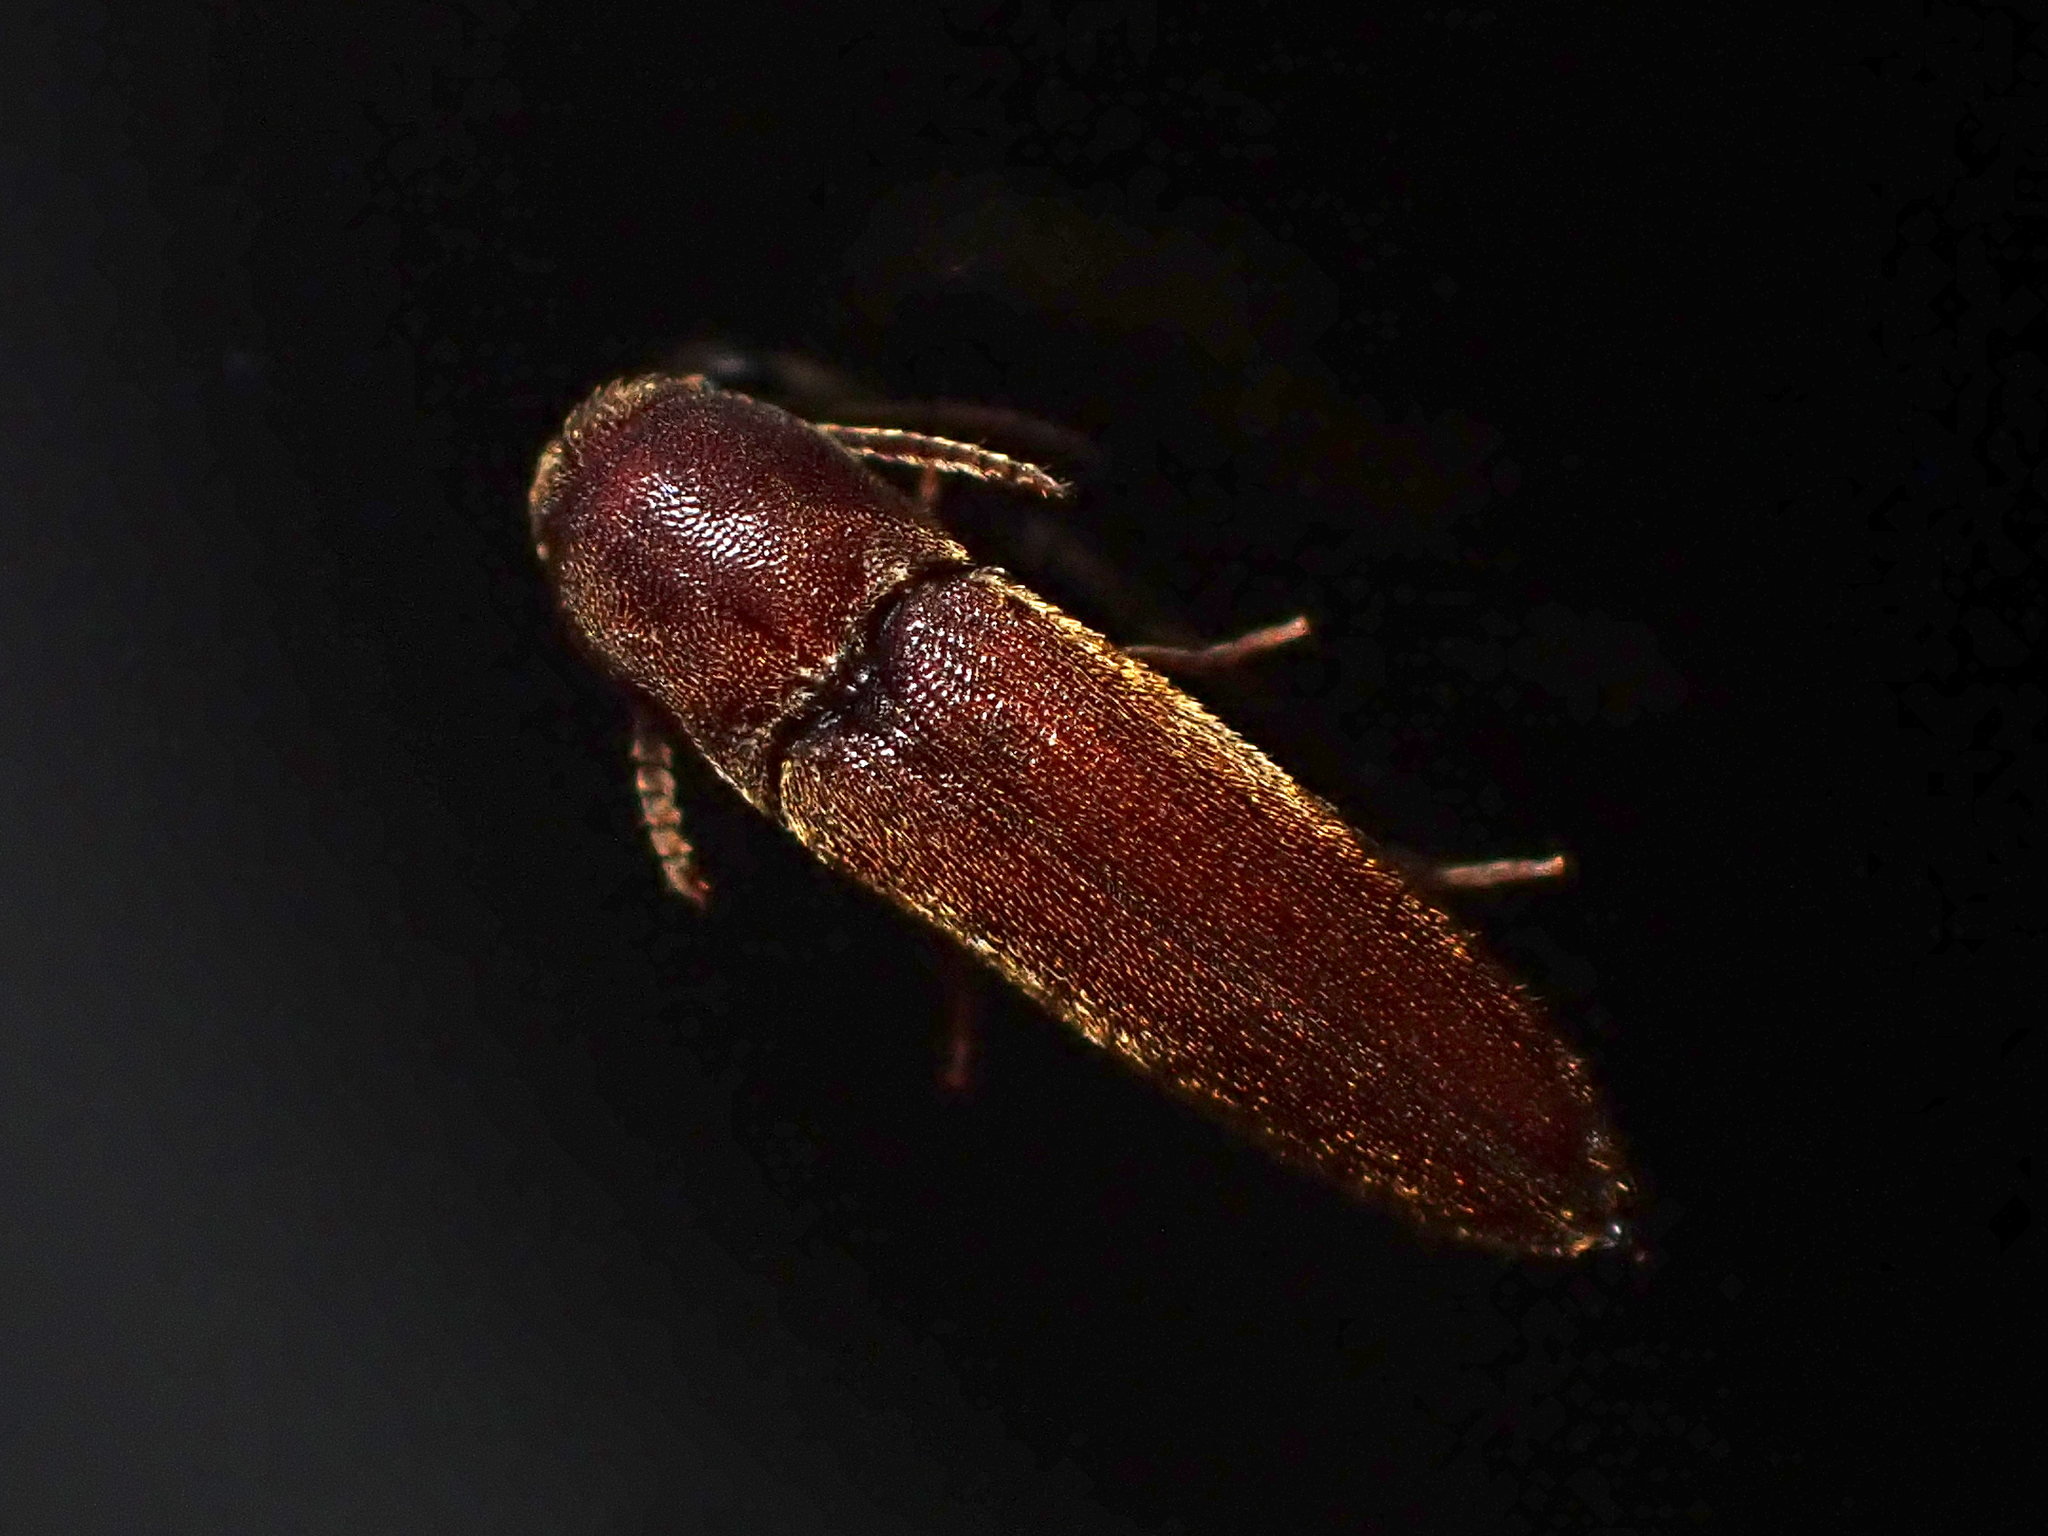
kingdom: Animalia
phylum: Arthropoda
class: Insecta
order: Coleoptera
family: Eucnemidae
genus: Nematodes
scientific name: Nematodes
